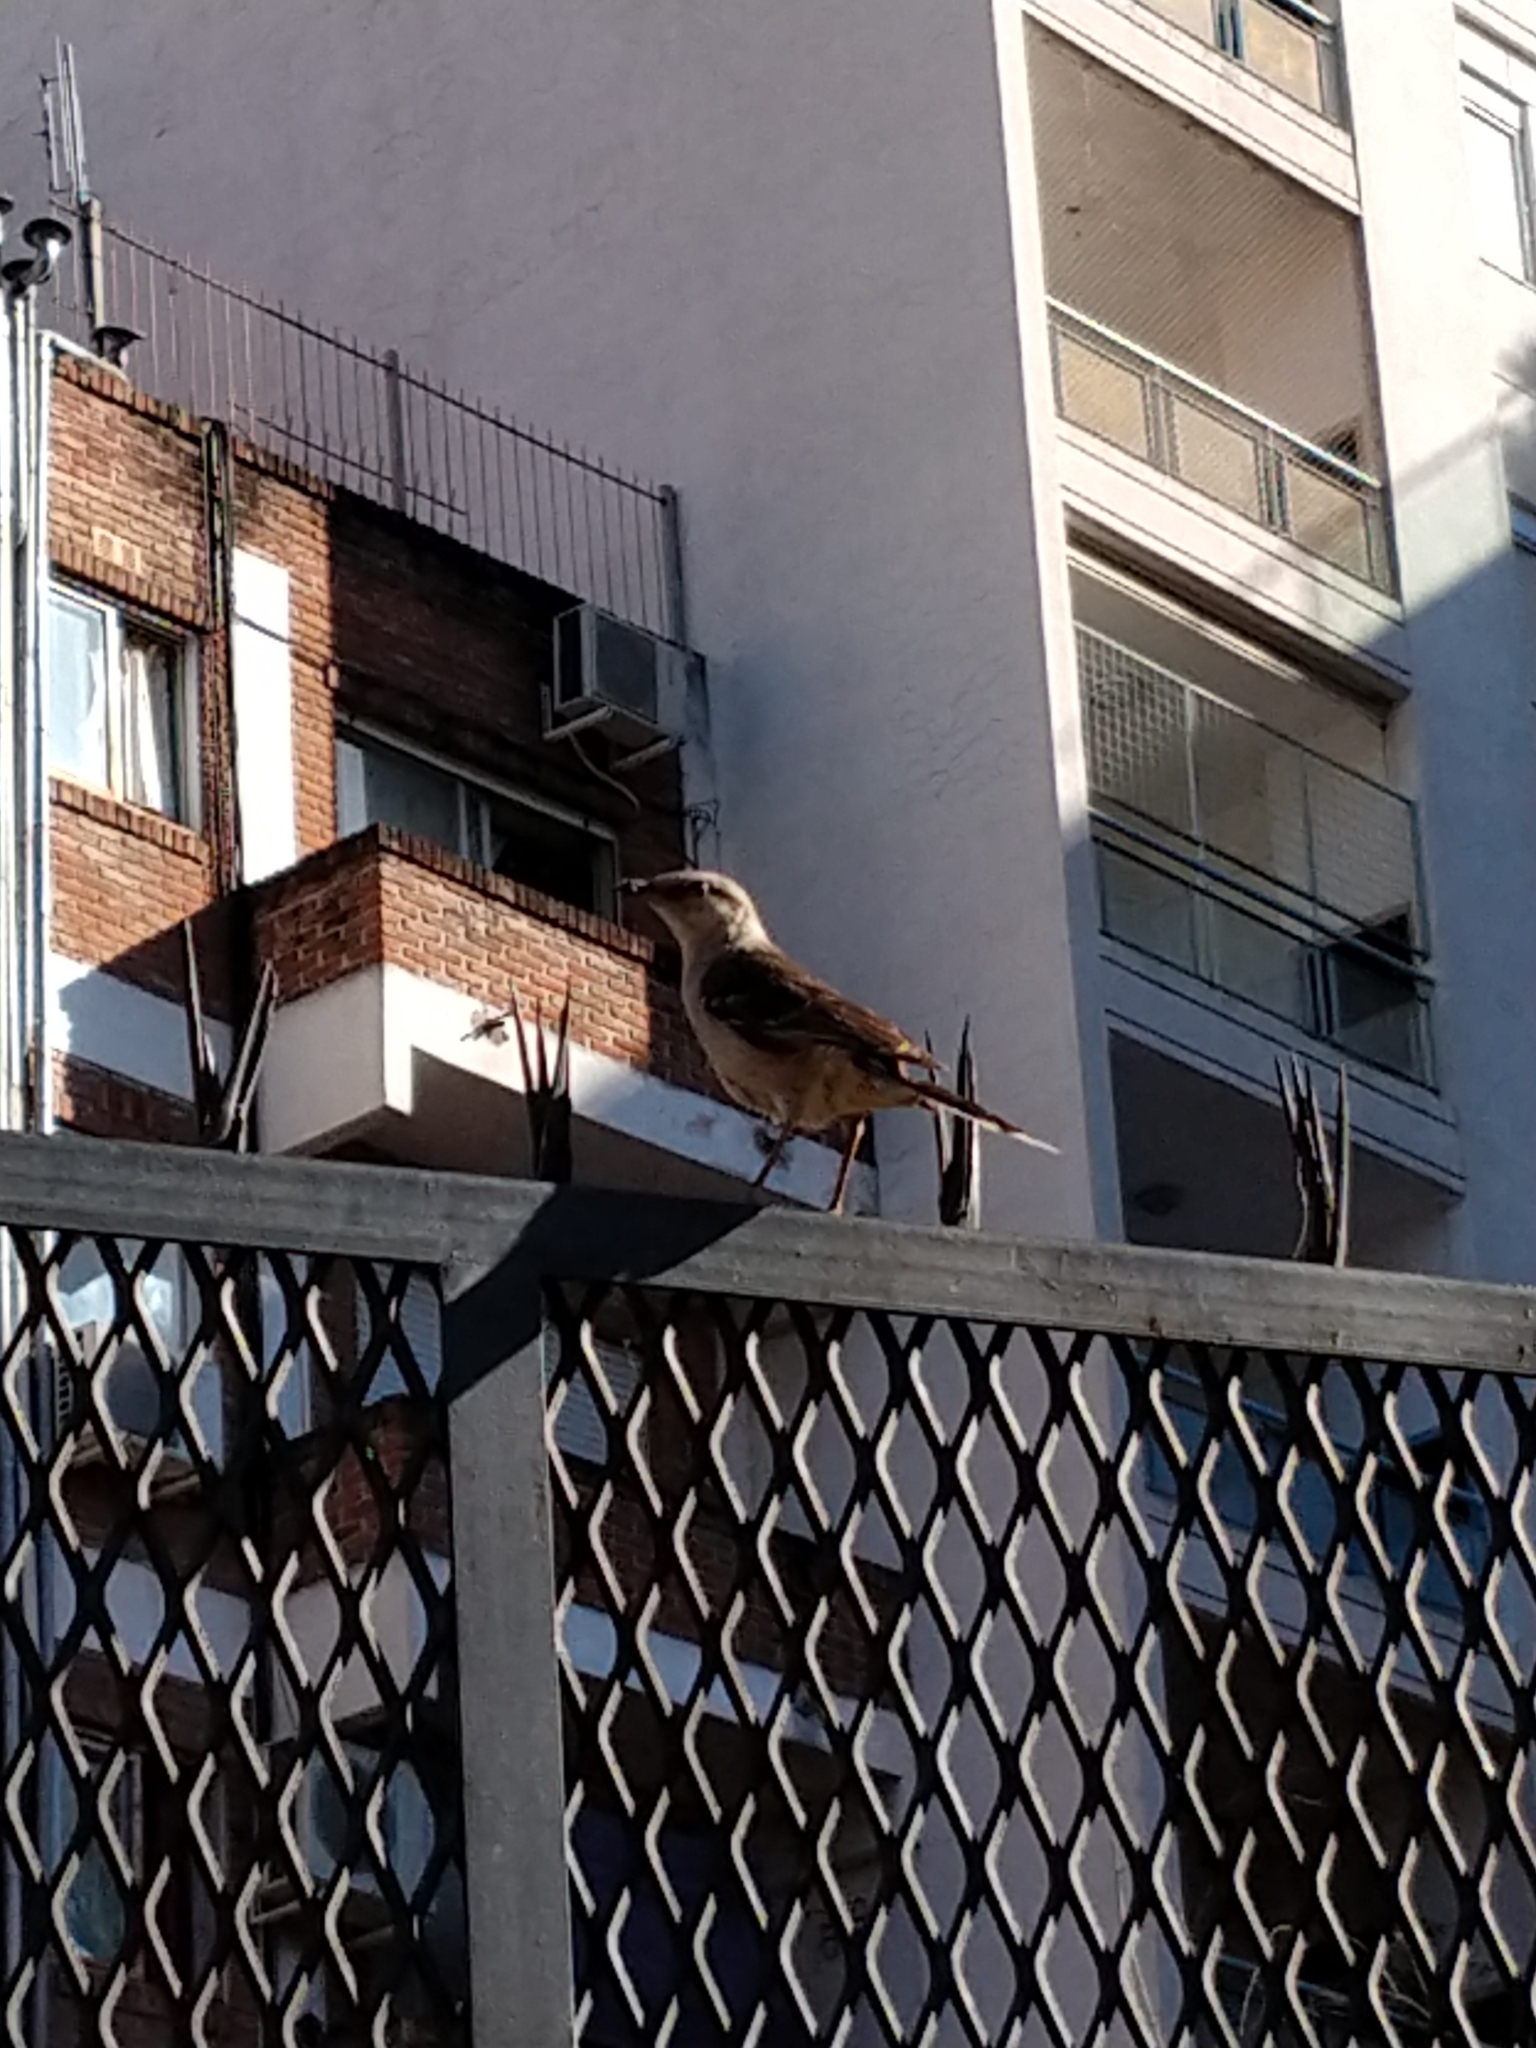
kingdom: Animalia
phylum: Chordata
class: Aves
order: Passeriformes
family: Mimidae
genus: Mimus
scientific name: Mimus saturninus
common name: Chalk-browed mockingbird
